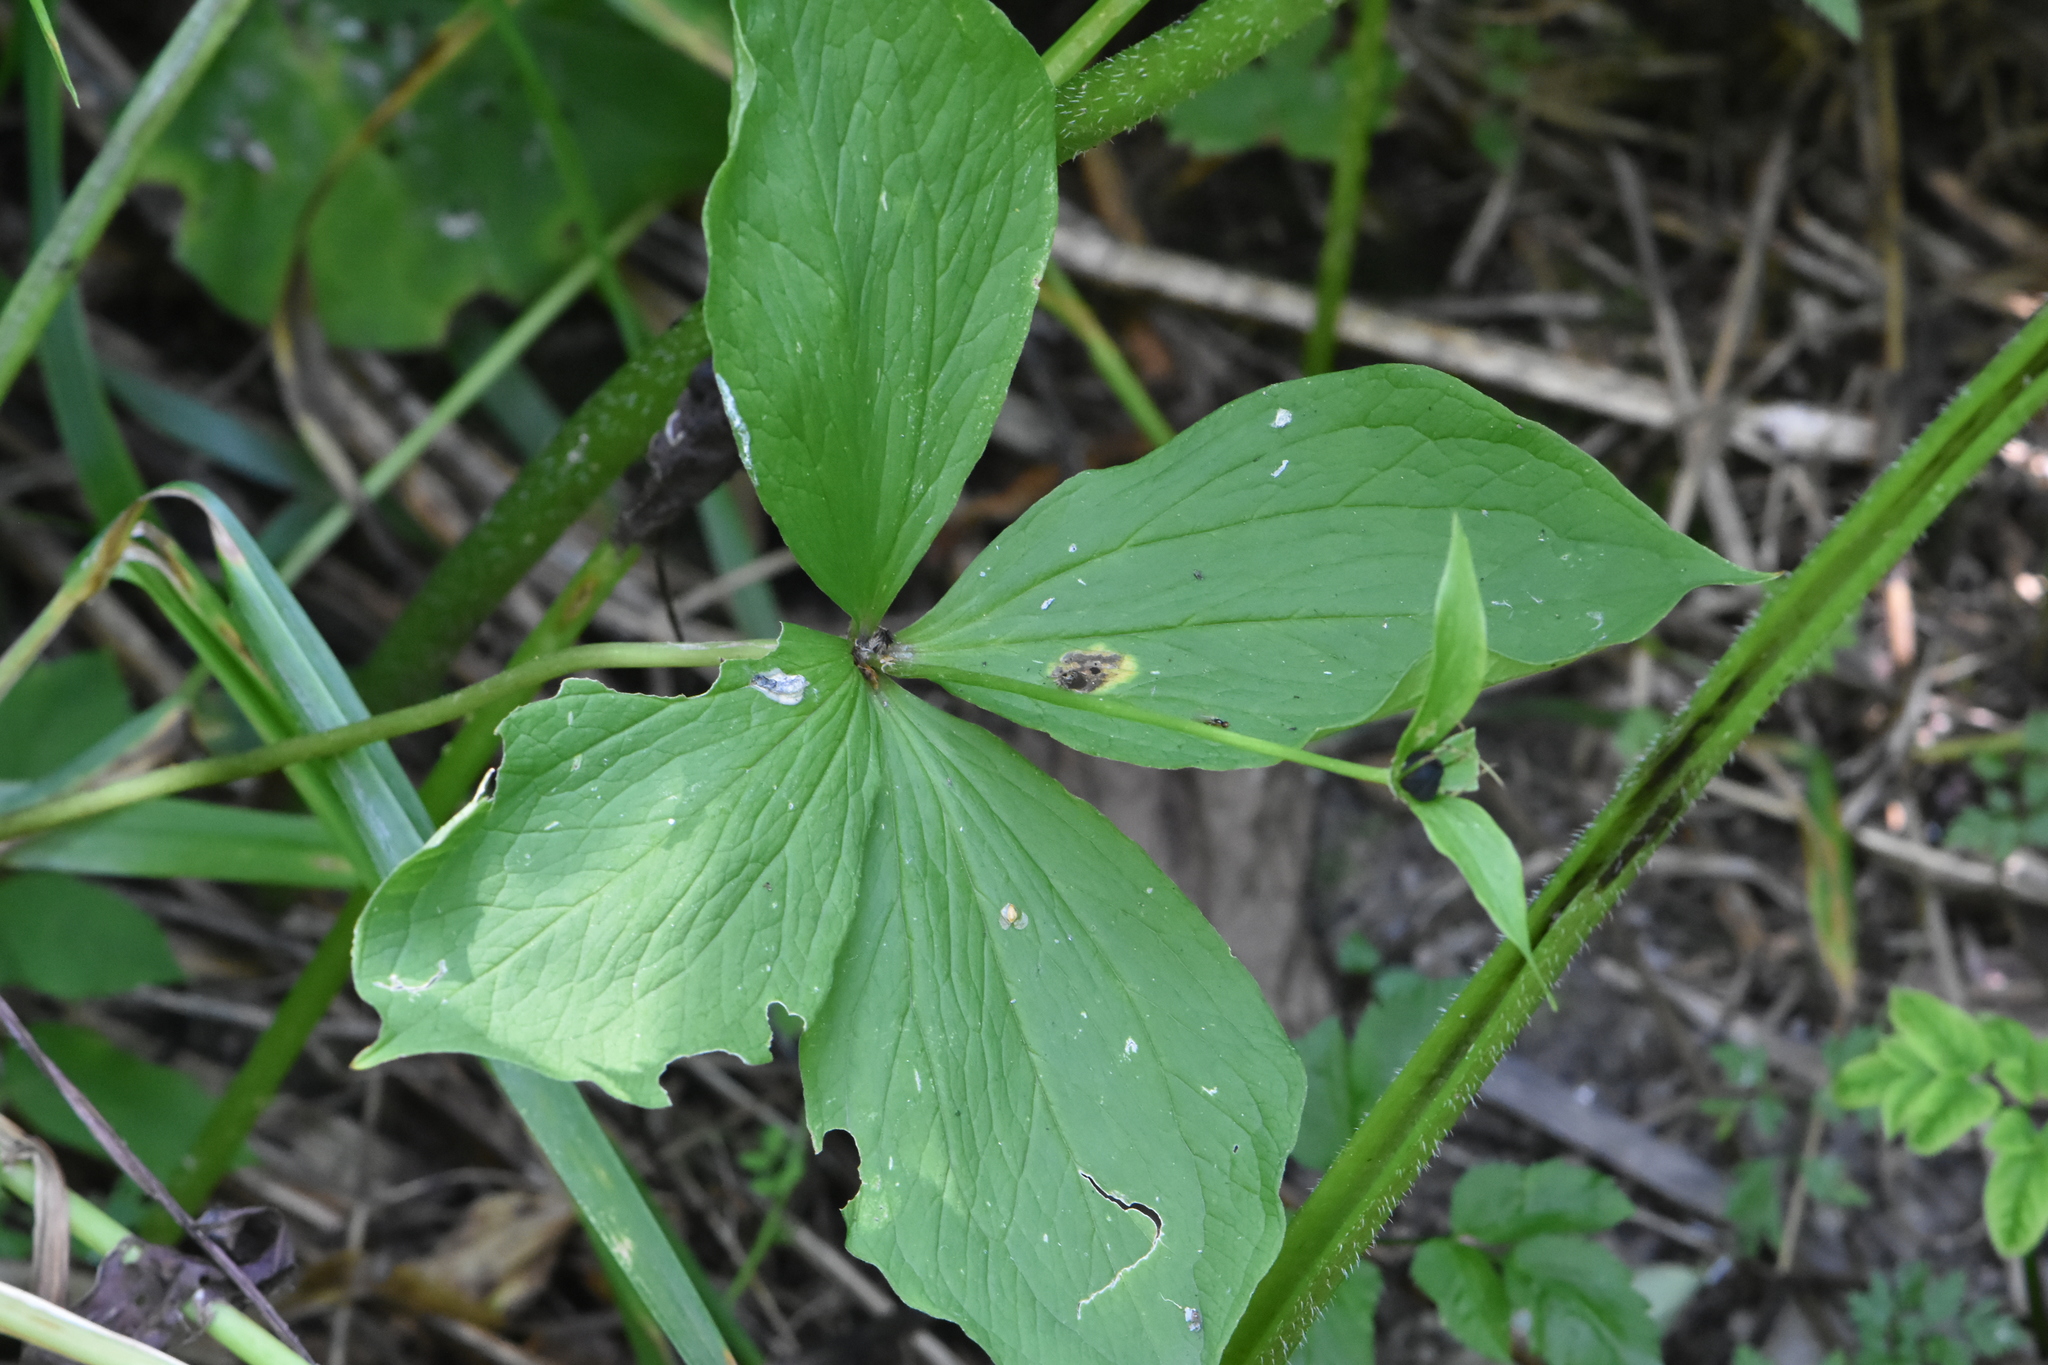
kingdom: Plantae
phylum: Tracheophyta
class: Liliopsida
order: Liliales
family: Melanthiaceae
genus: Paris
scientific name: Paris quadrifolia
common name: Herb-paris
